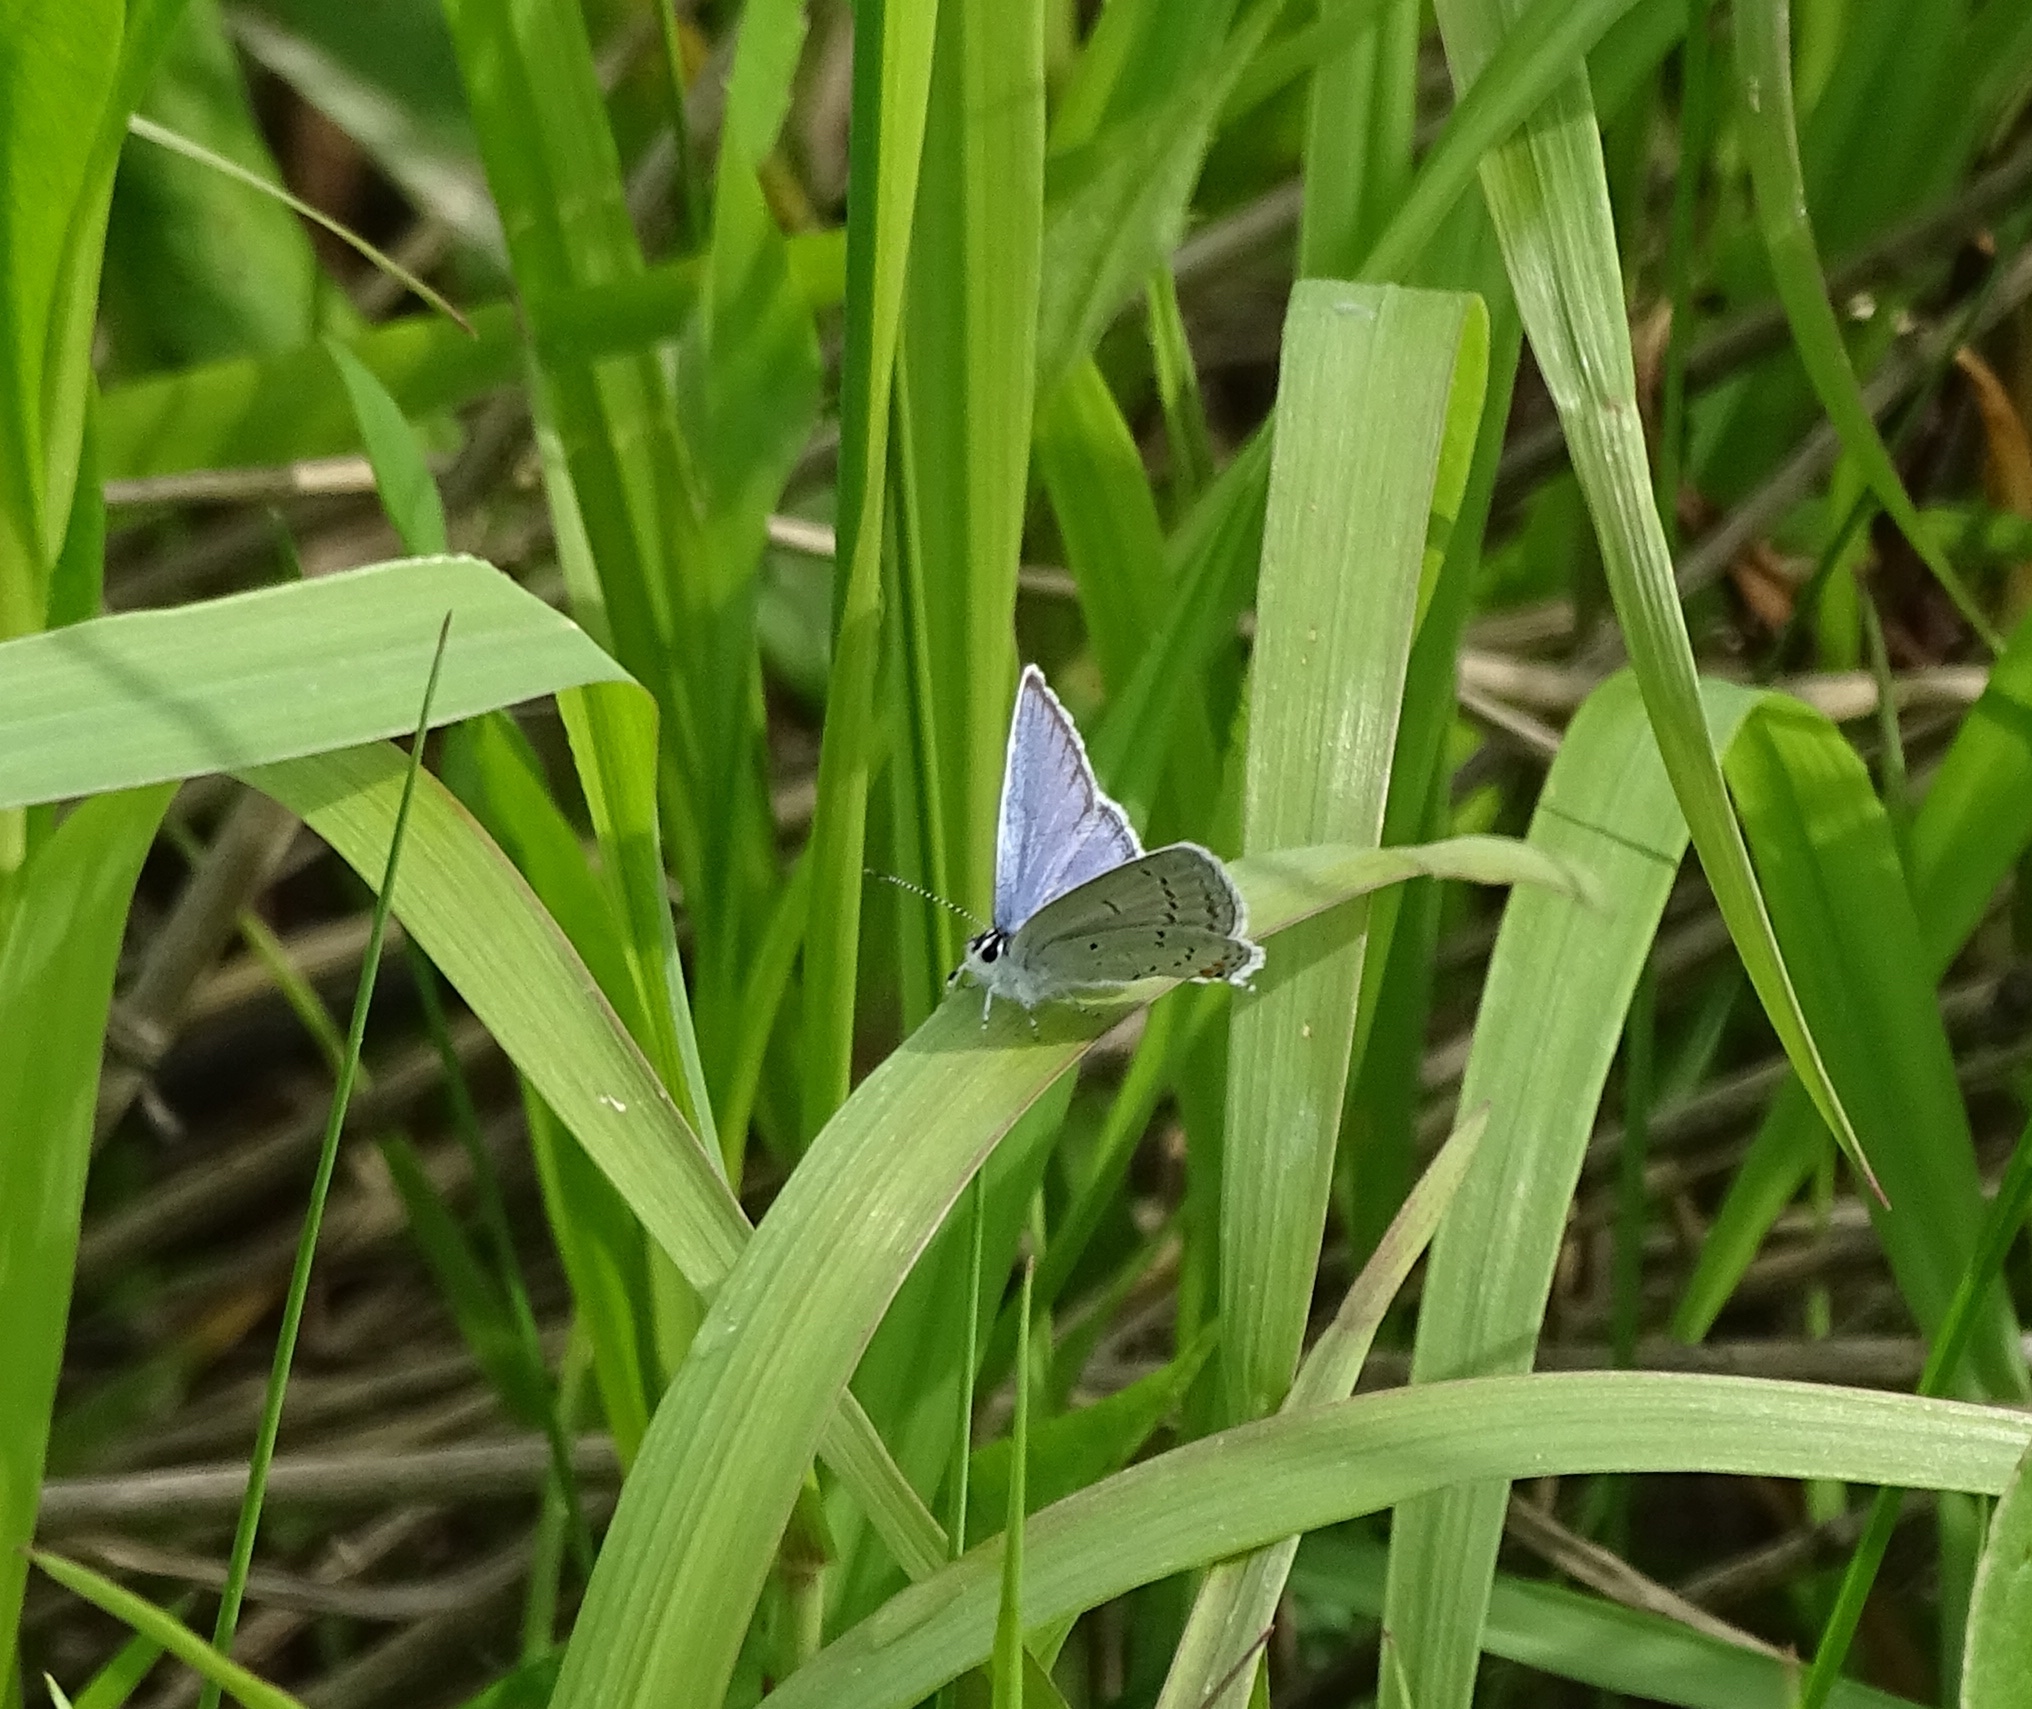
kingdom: Animalia
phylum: Arthropoda
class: Insecta
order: Lepidoptera
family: Lycaenidae
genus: Elkalyce
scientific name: Elkalyce comyntas
